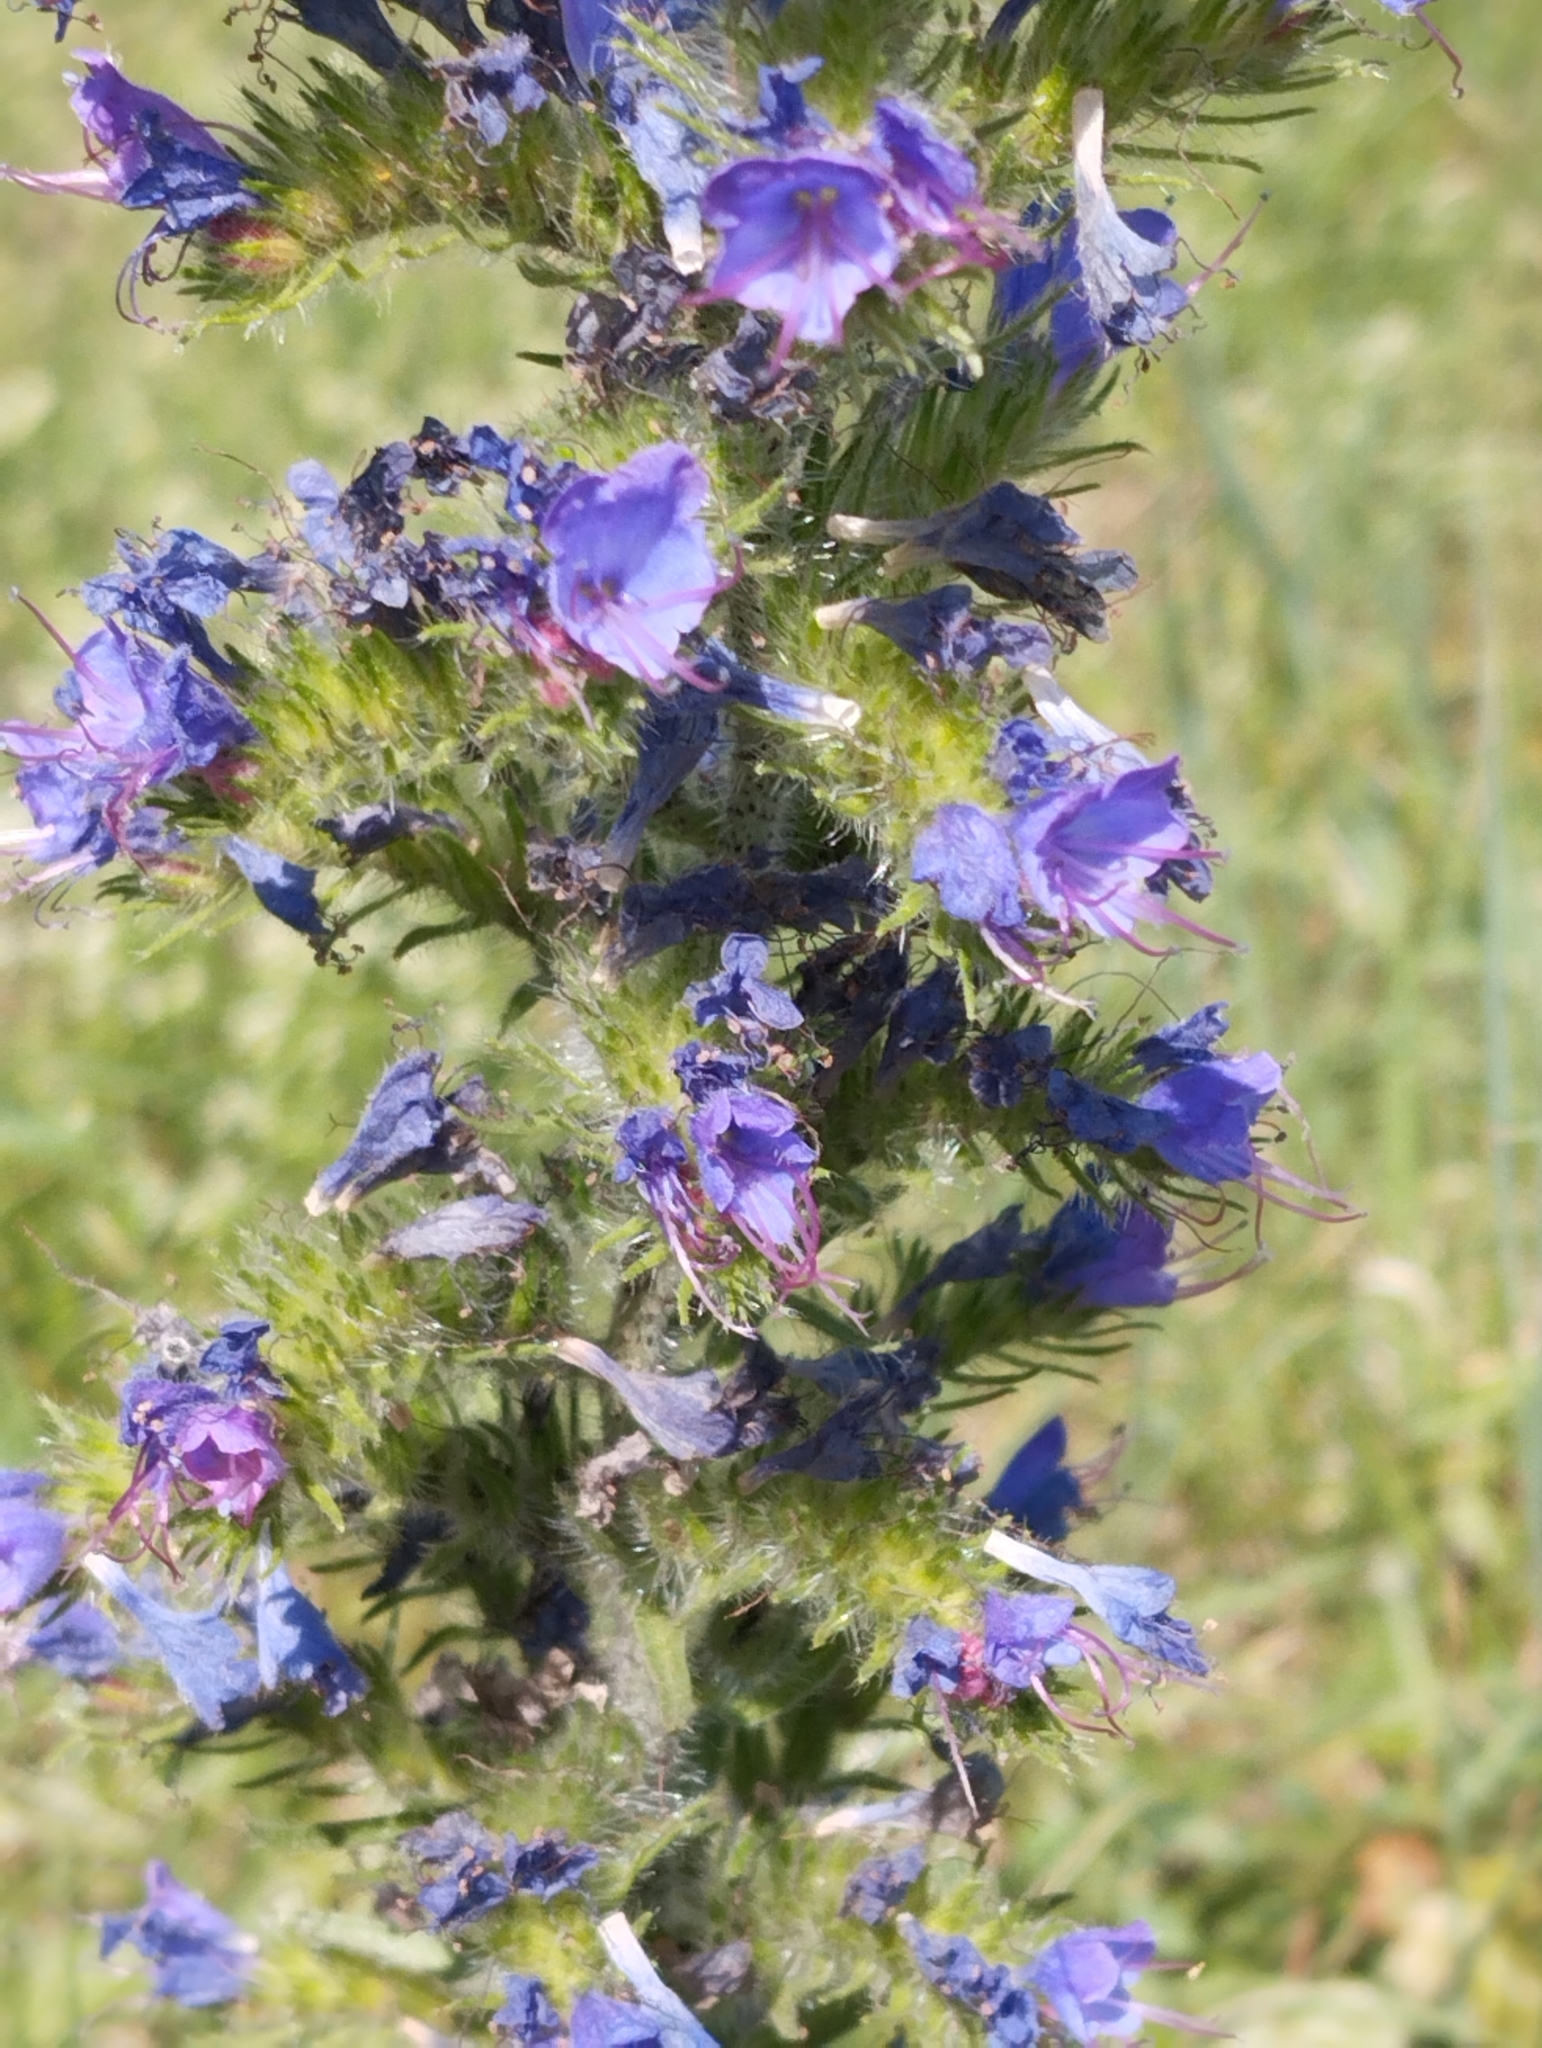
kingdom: Plantae
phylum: Tracheophyta
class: Magnoliopsida
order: Boraginales
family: Boraginaceae
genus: Echium
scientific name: Echium vulgare
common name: Common viper's bugloss
